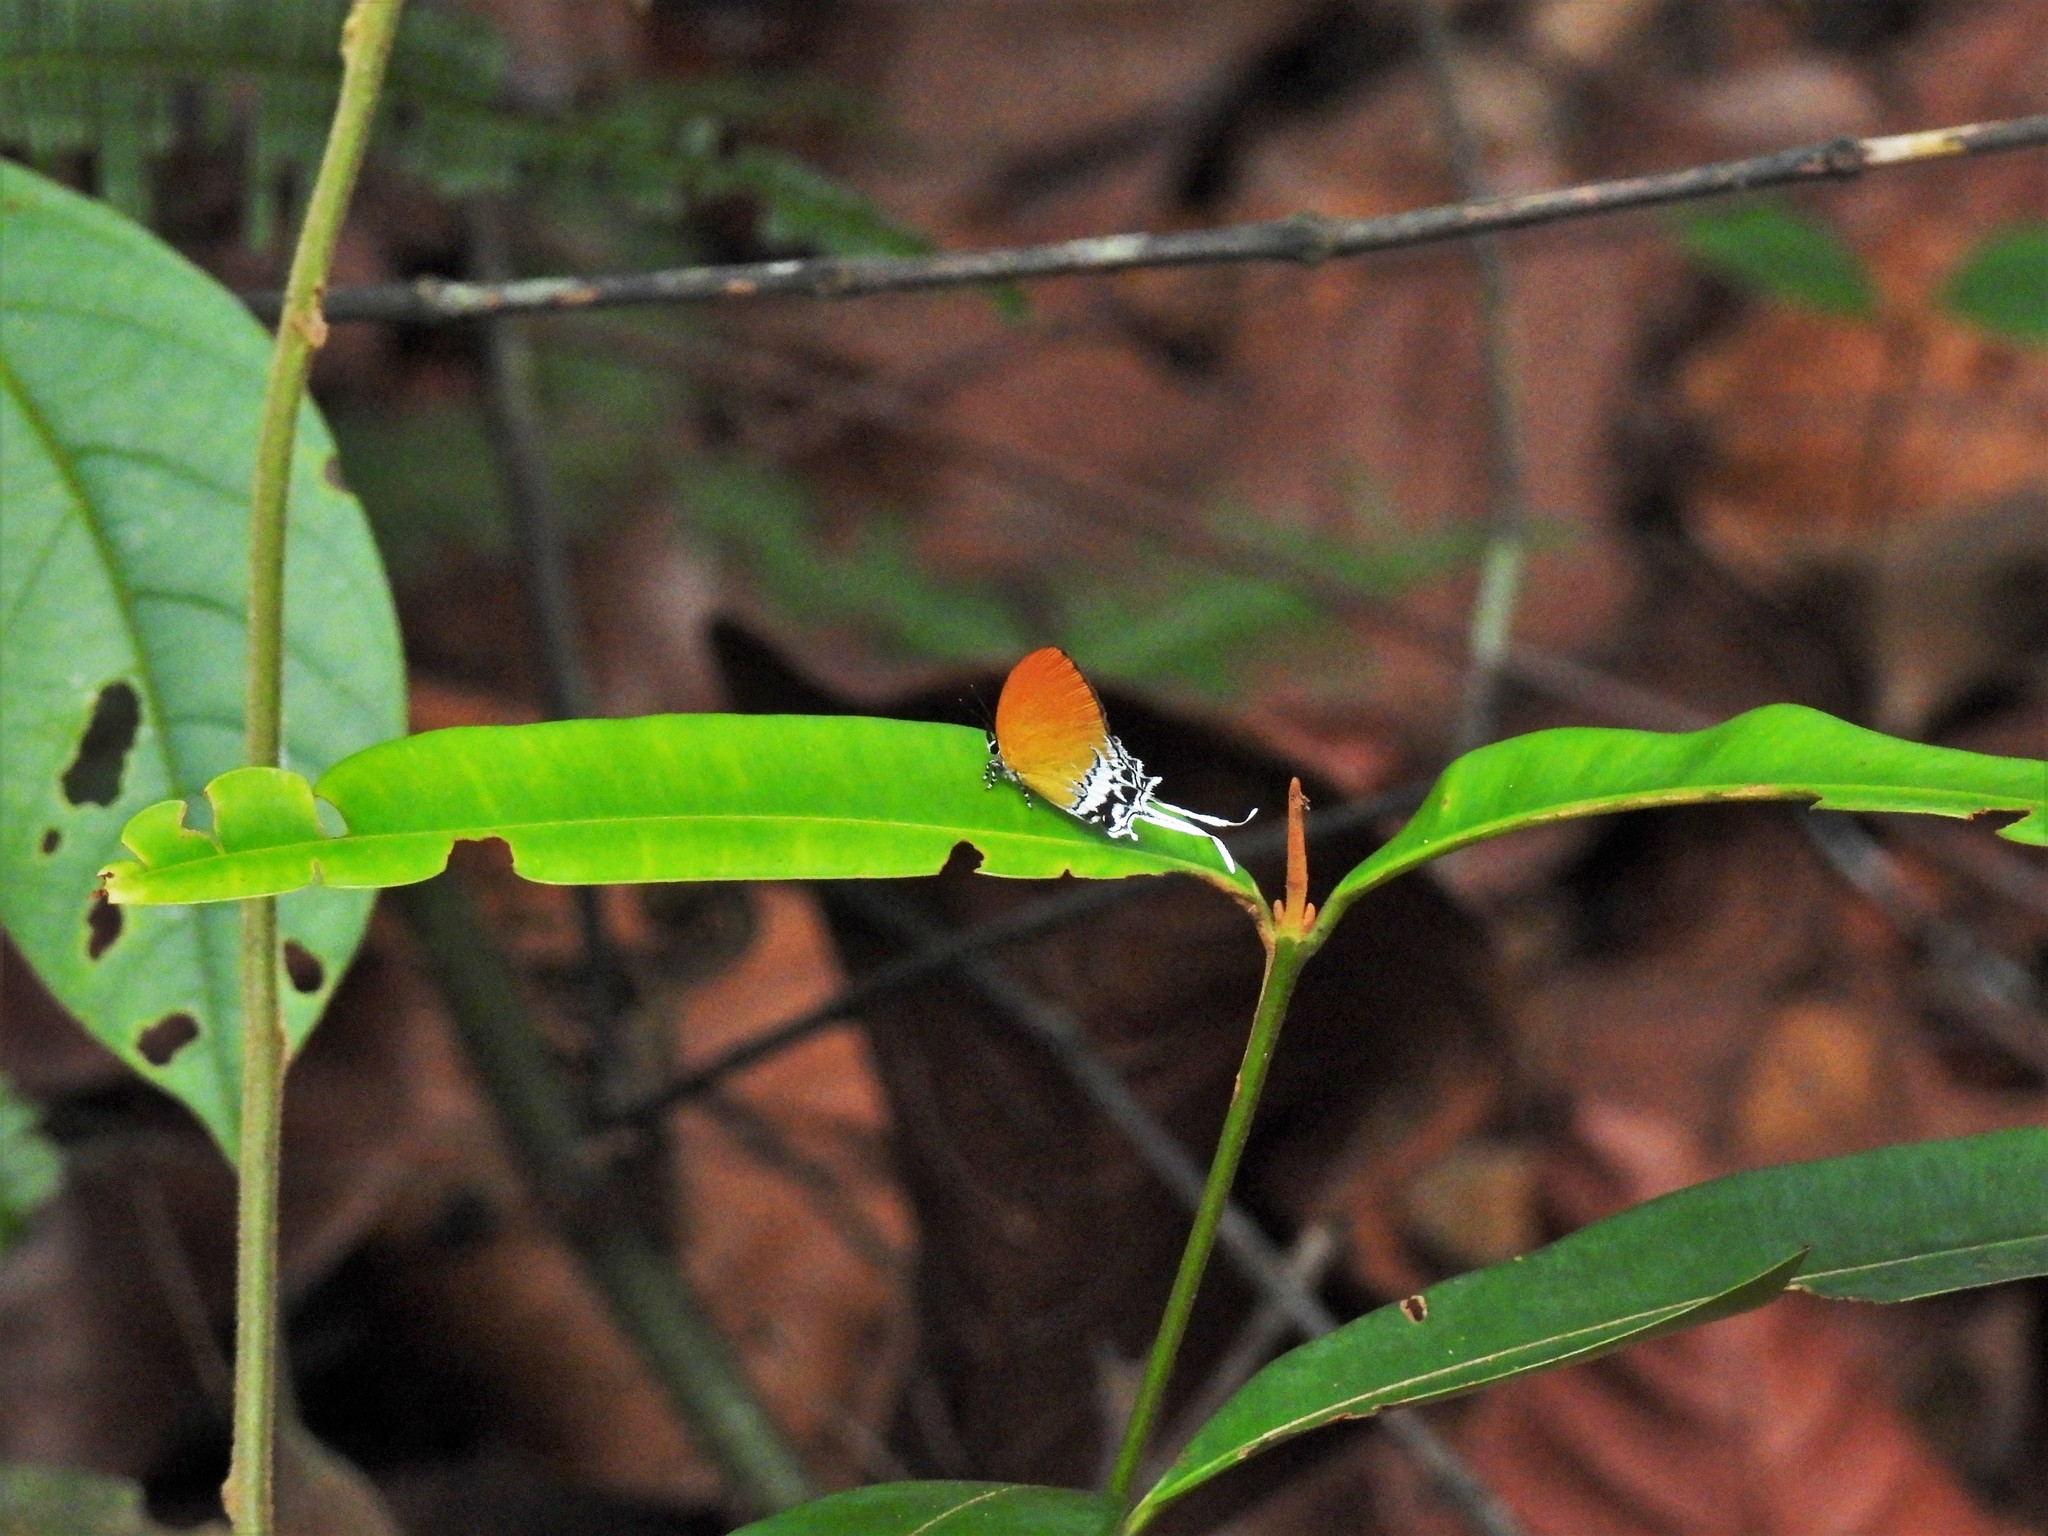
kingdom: Animalia
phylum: Arthropoda
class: Insecta
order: Lepidoptera
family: Lycaenidae
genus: Eooxylides
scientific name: Eooxylides tharis
